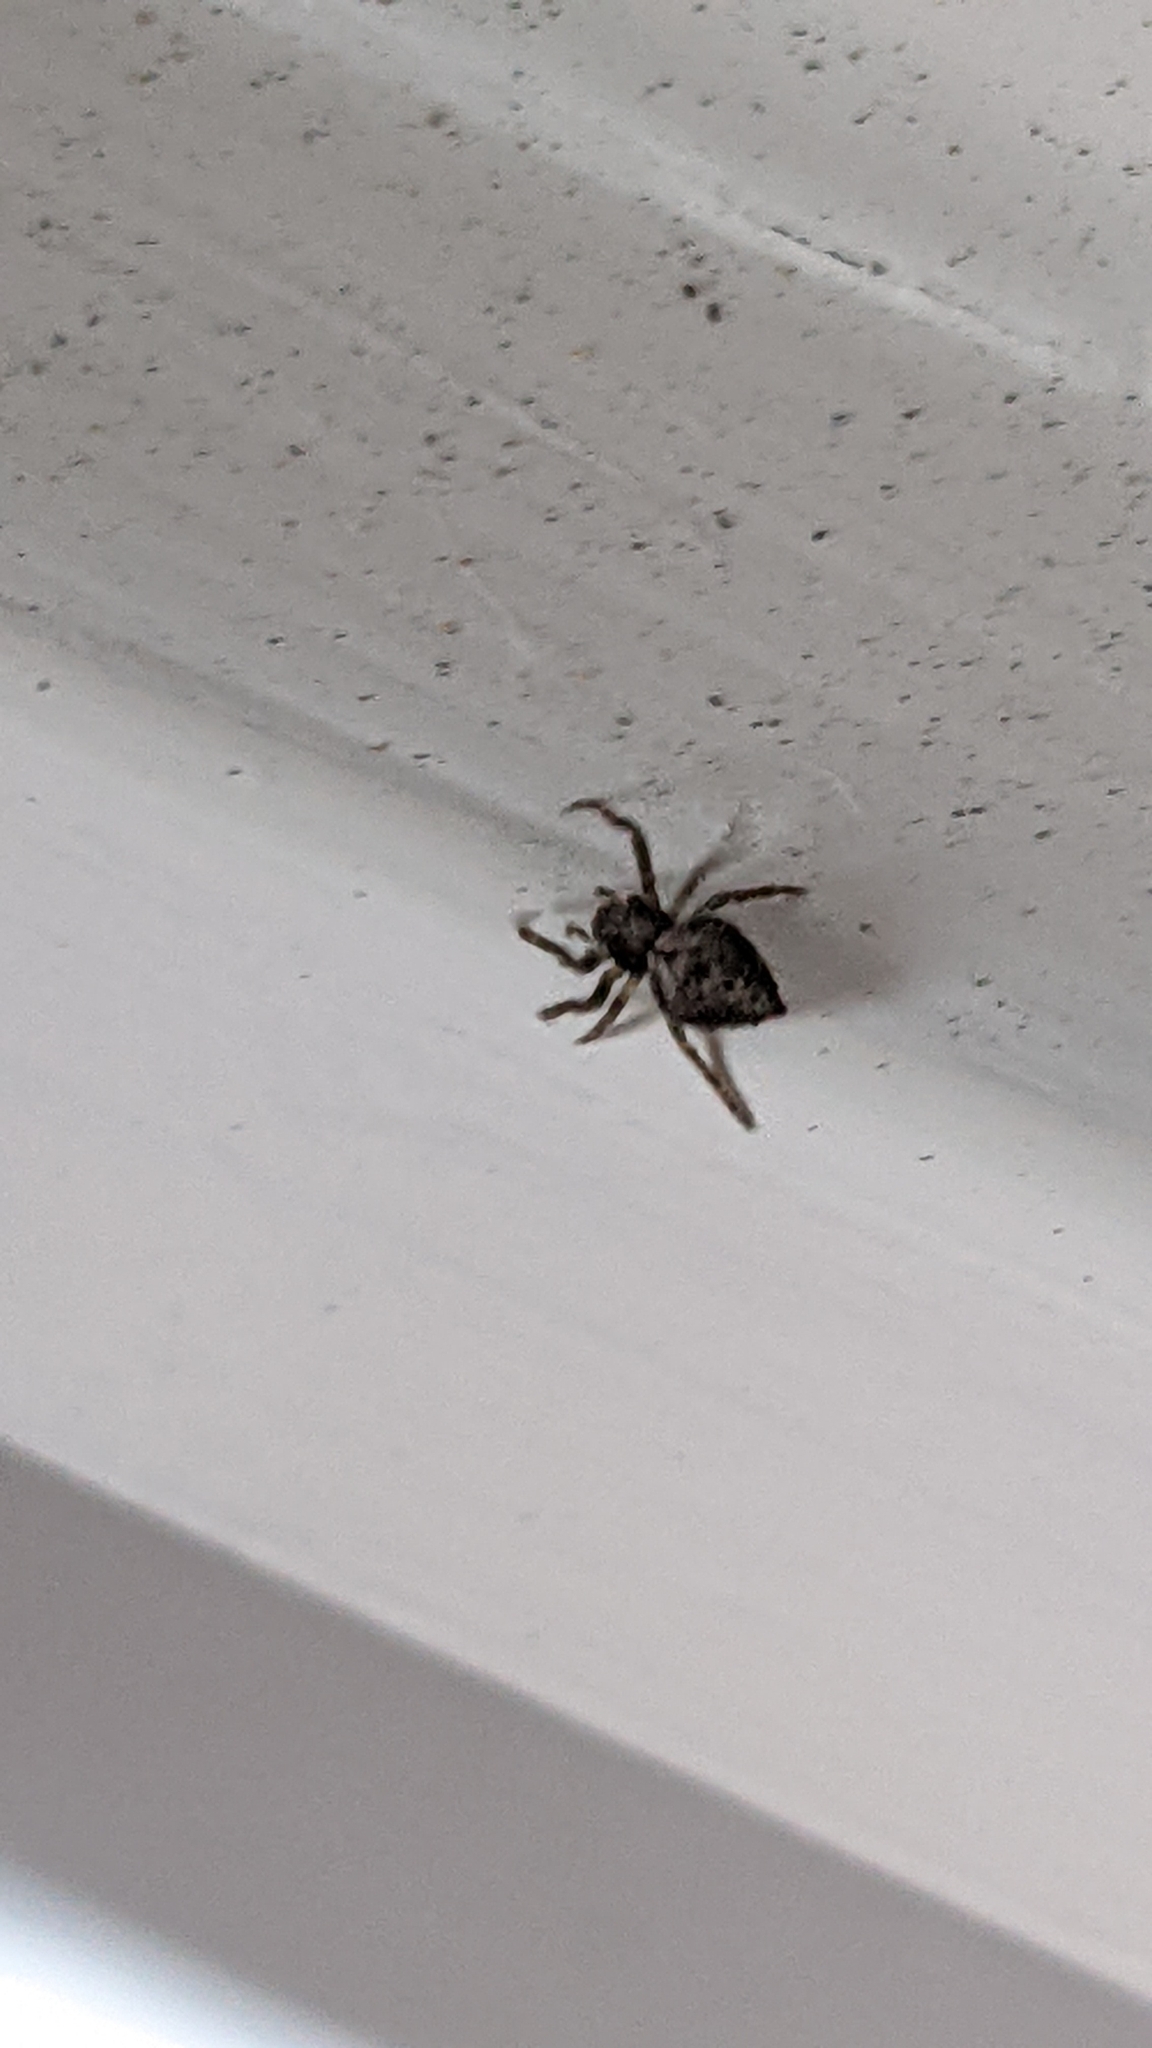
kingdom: Animalia
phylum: Arthropoda
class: Arachnida
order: Araneae
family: Araneidae
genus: Eriophora
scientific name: Eriophora pustulosa
